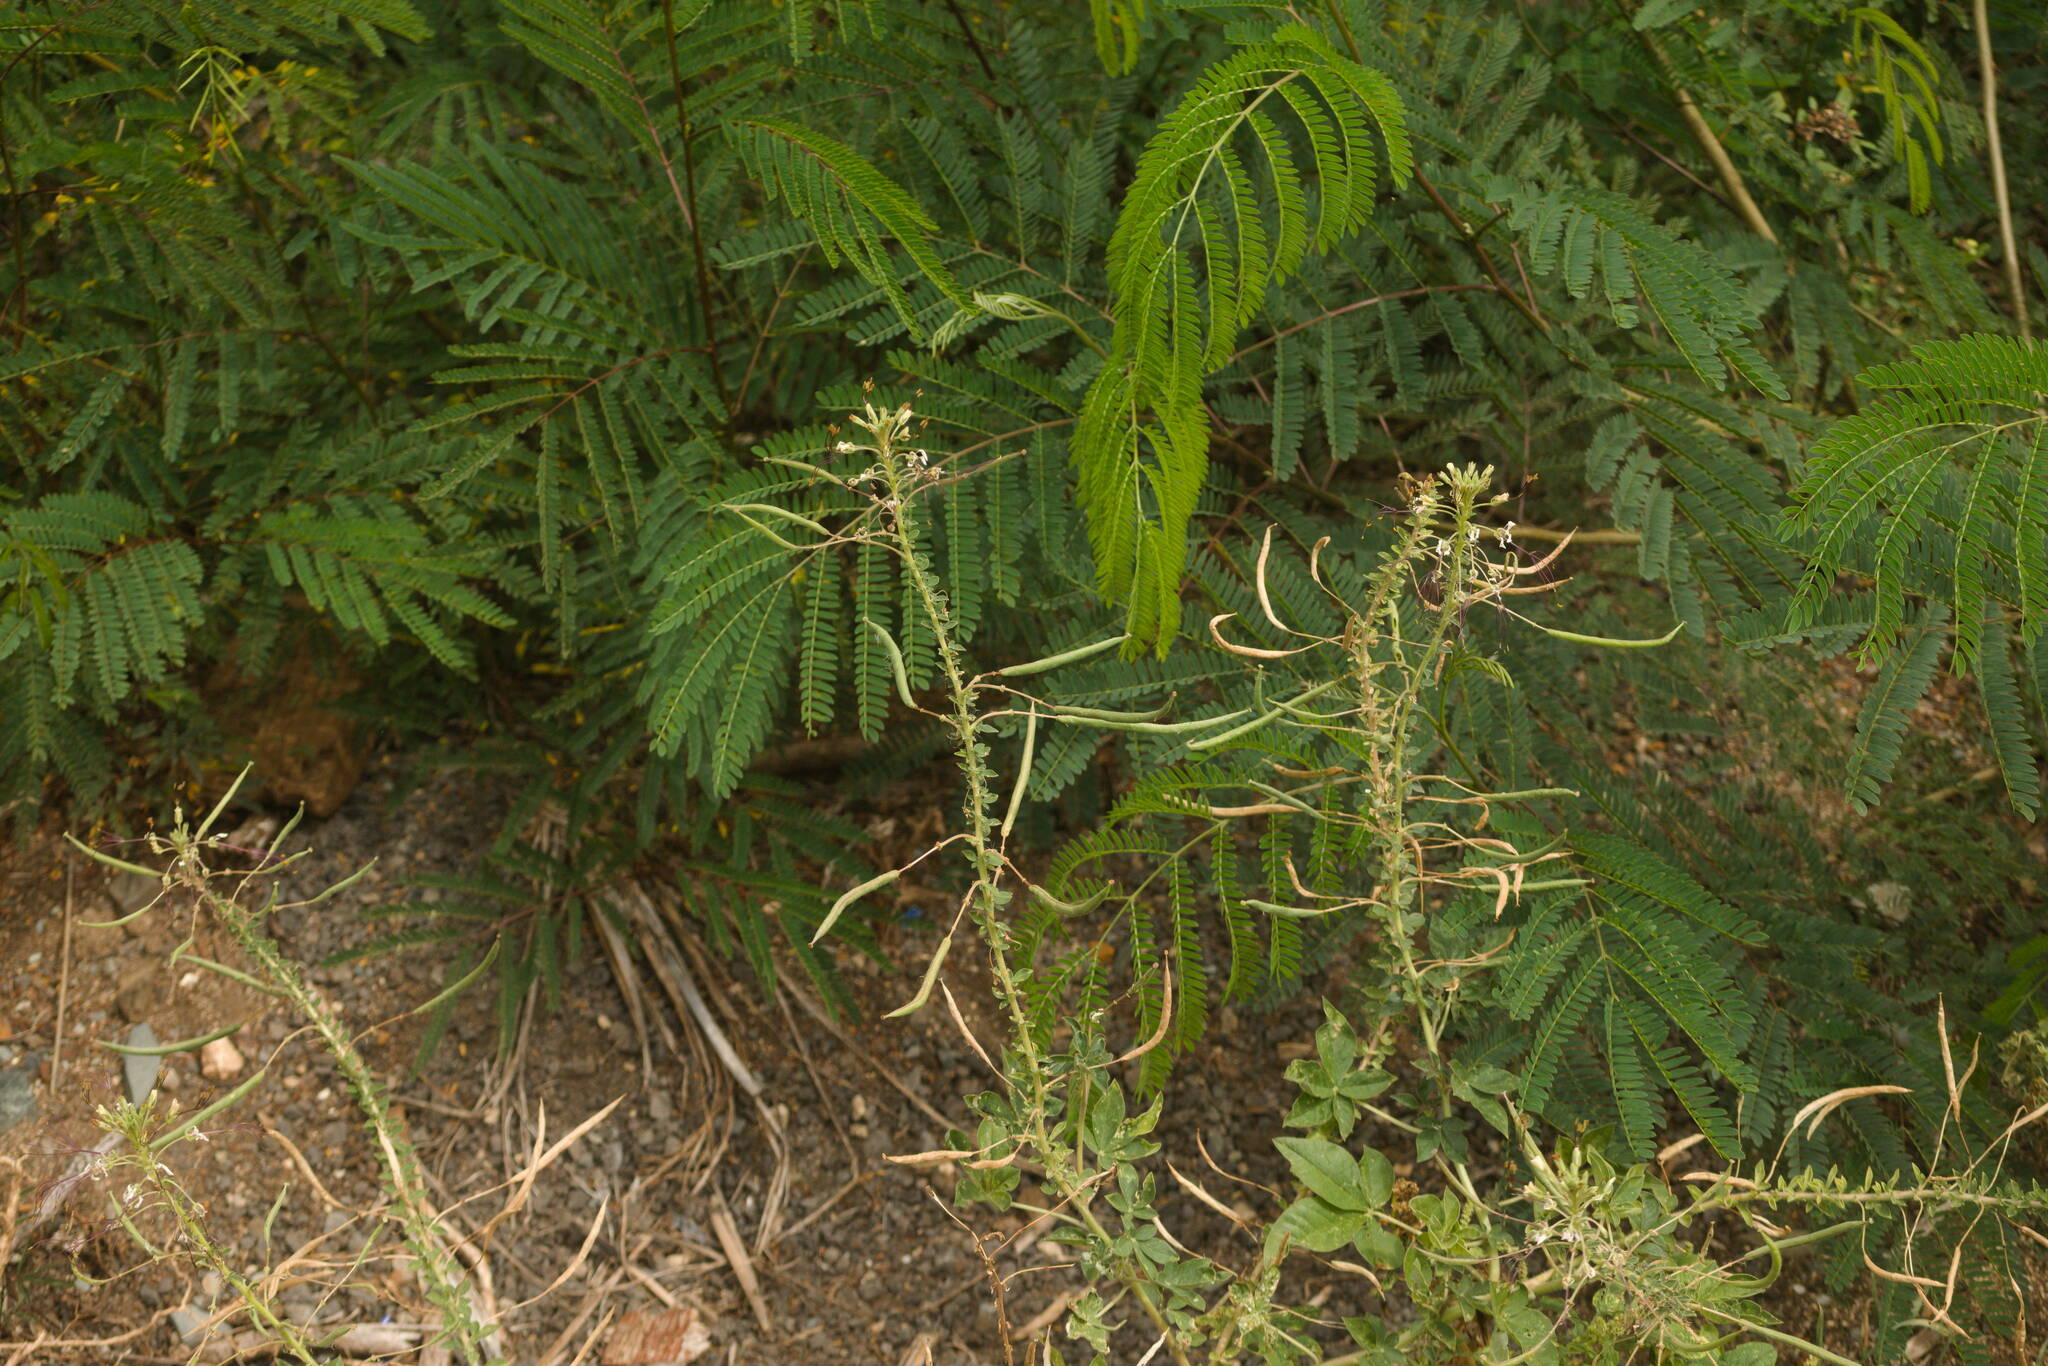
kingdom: Plantae
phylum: Tracheophyta
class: Magnoliopsida
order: Brassicales
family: Cleomaceae
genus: Gynandropsis
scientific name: Gynandropsis gynandra
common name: Spiderwisp
